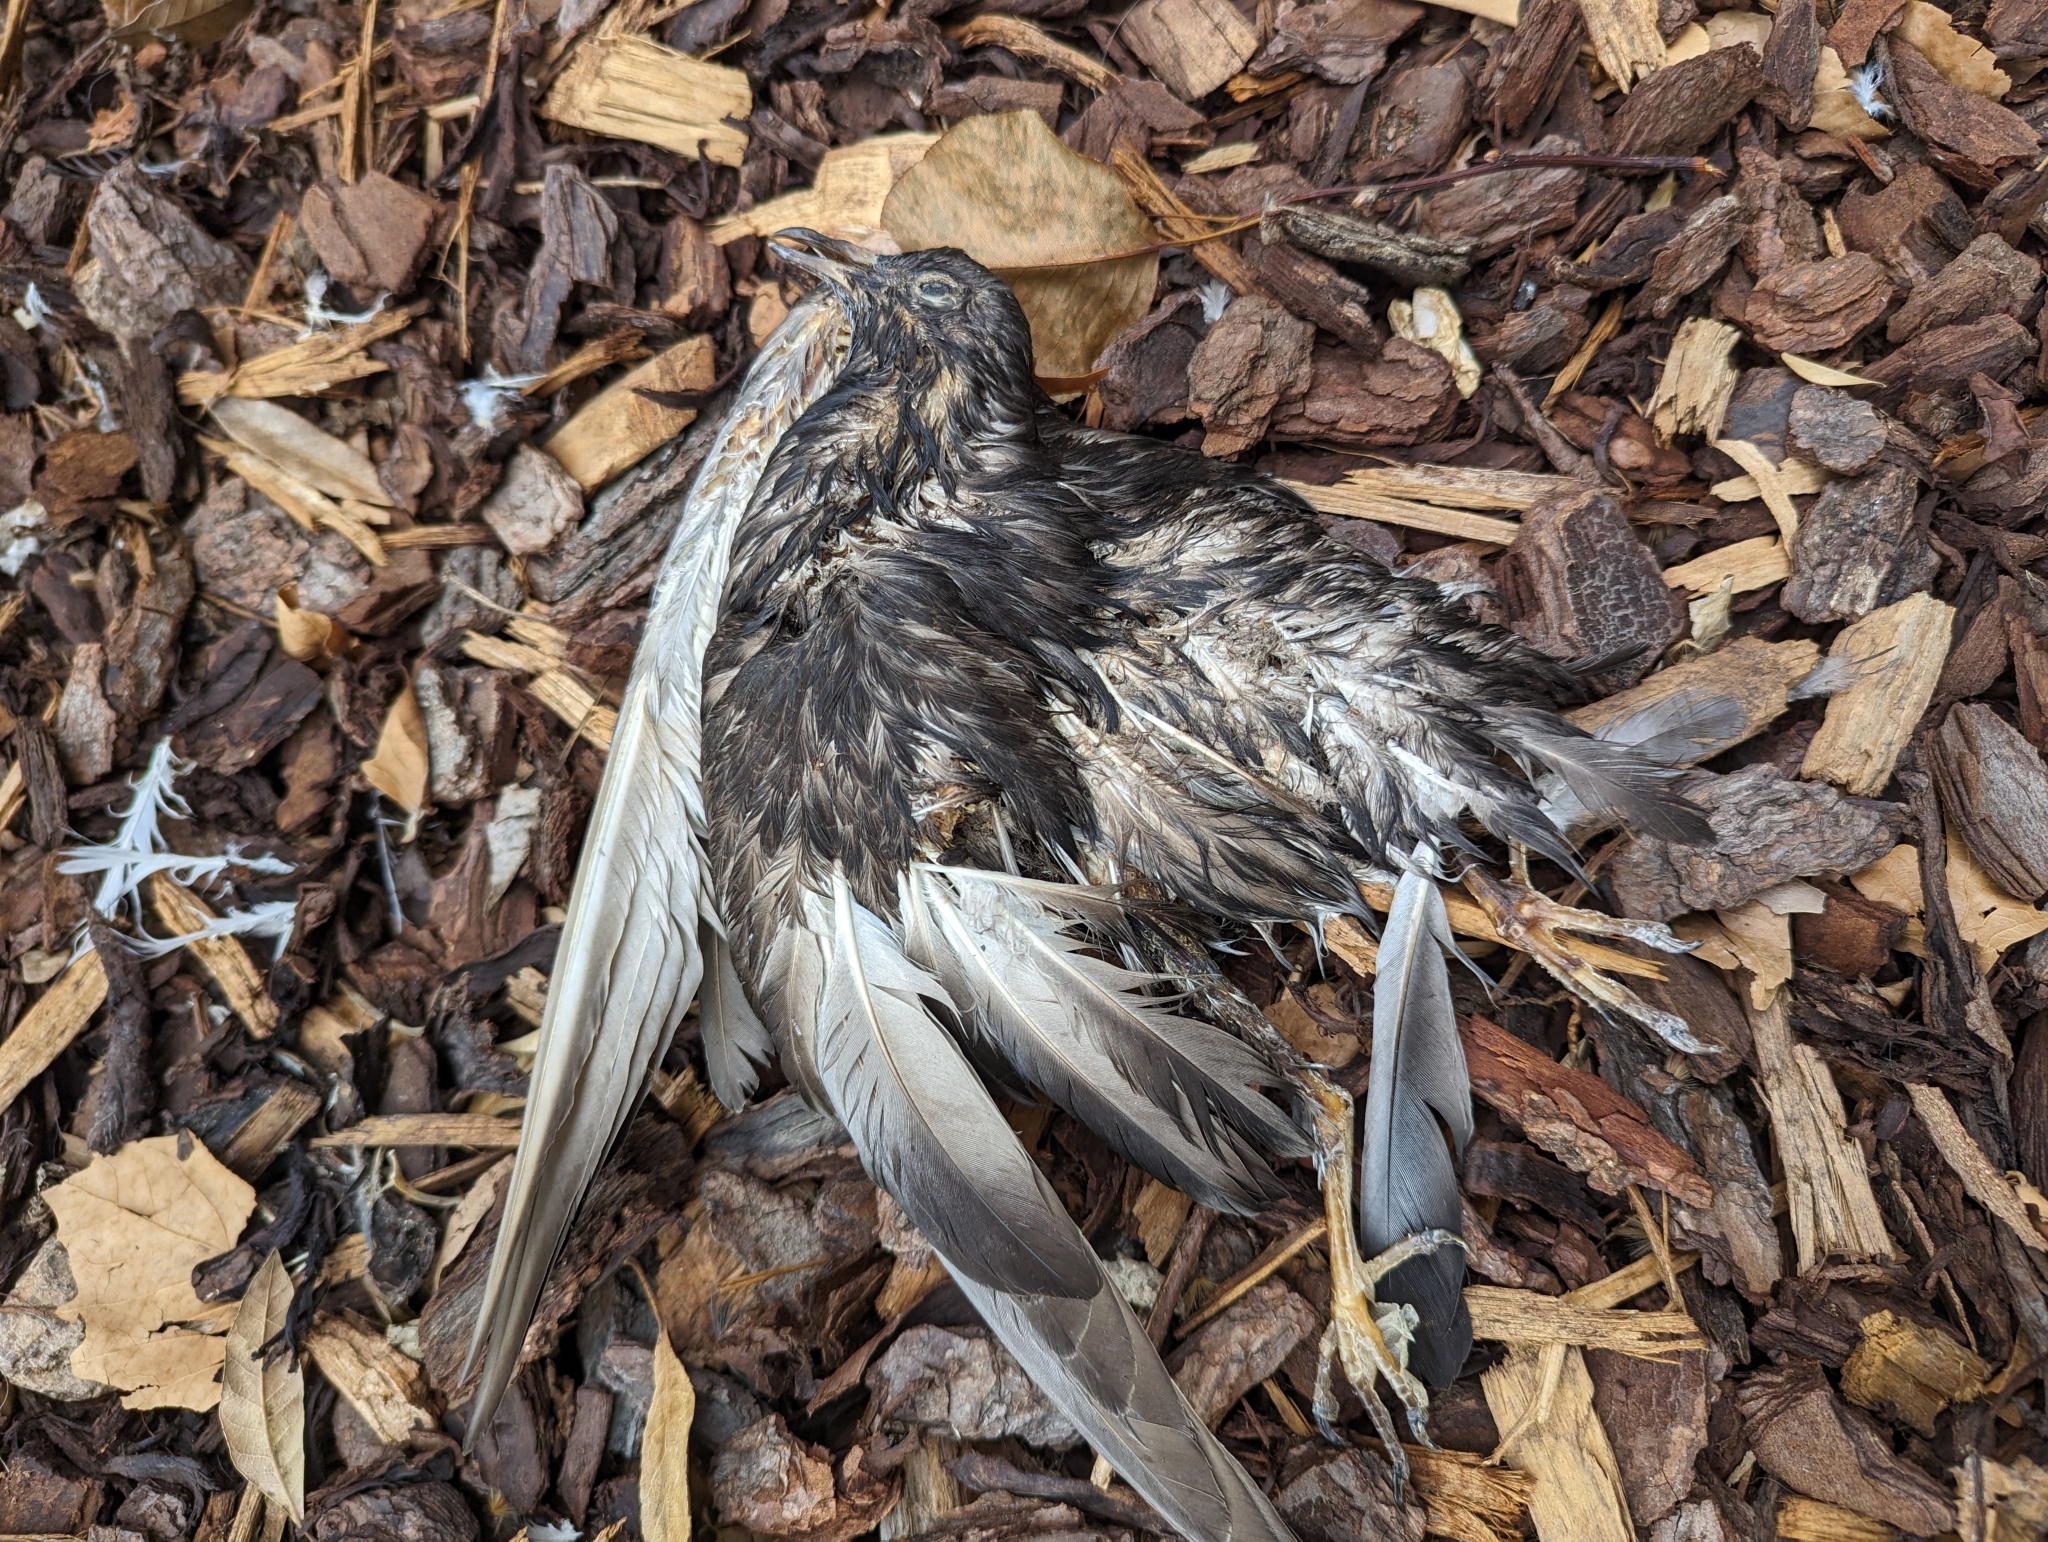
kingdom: Animalia
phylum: Chordata
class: Aves
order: Columbiformes
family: Columbidae
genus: Columba
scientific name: Columba livia
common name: Rock pigeon
